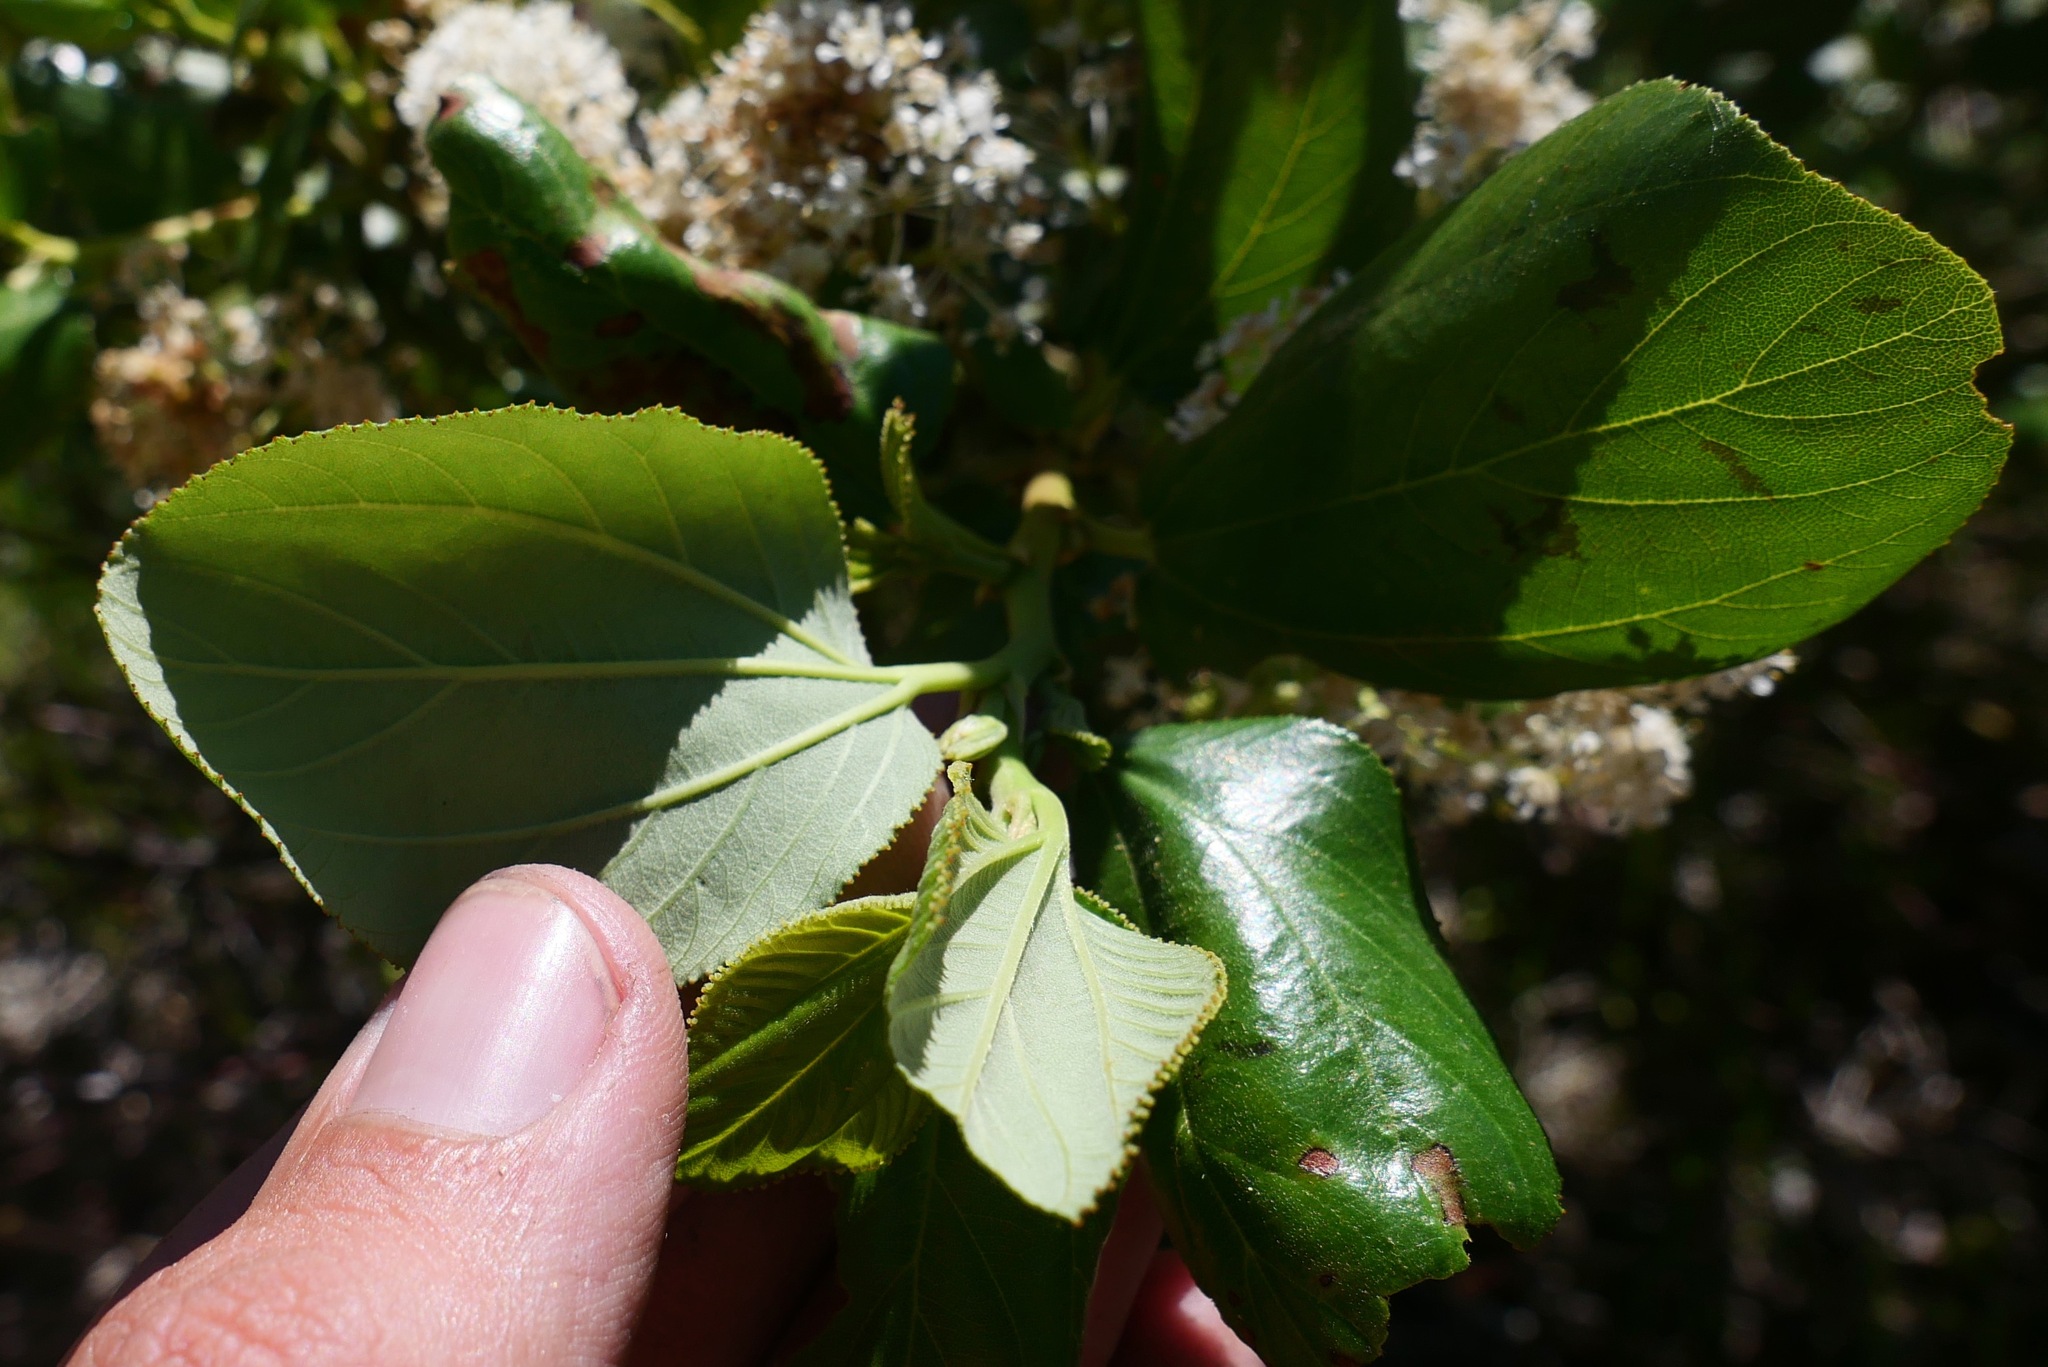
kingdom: Plantae
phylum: Tracheophyta
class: Magnoliopsida
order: Rosales
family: Rhamnaceae
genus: Ceanothus
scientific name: Ceanothus velutinus
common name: Snowbrush
